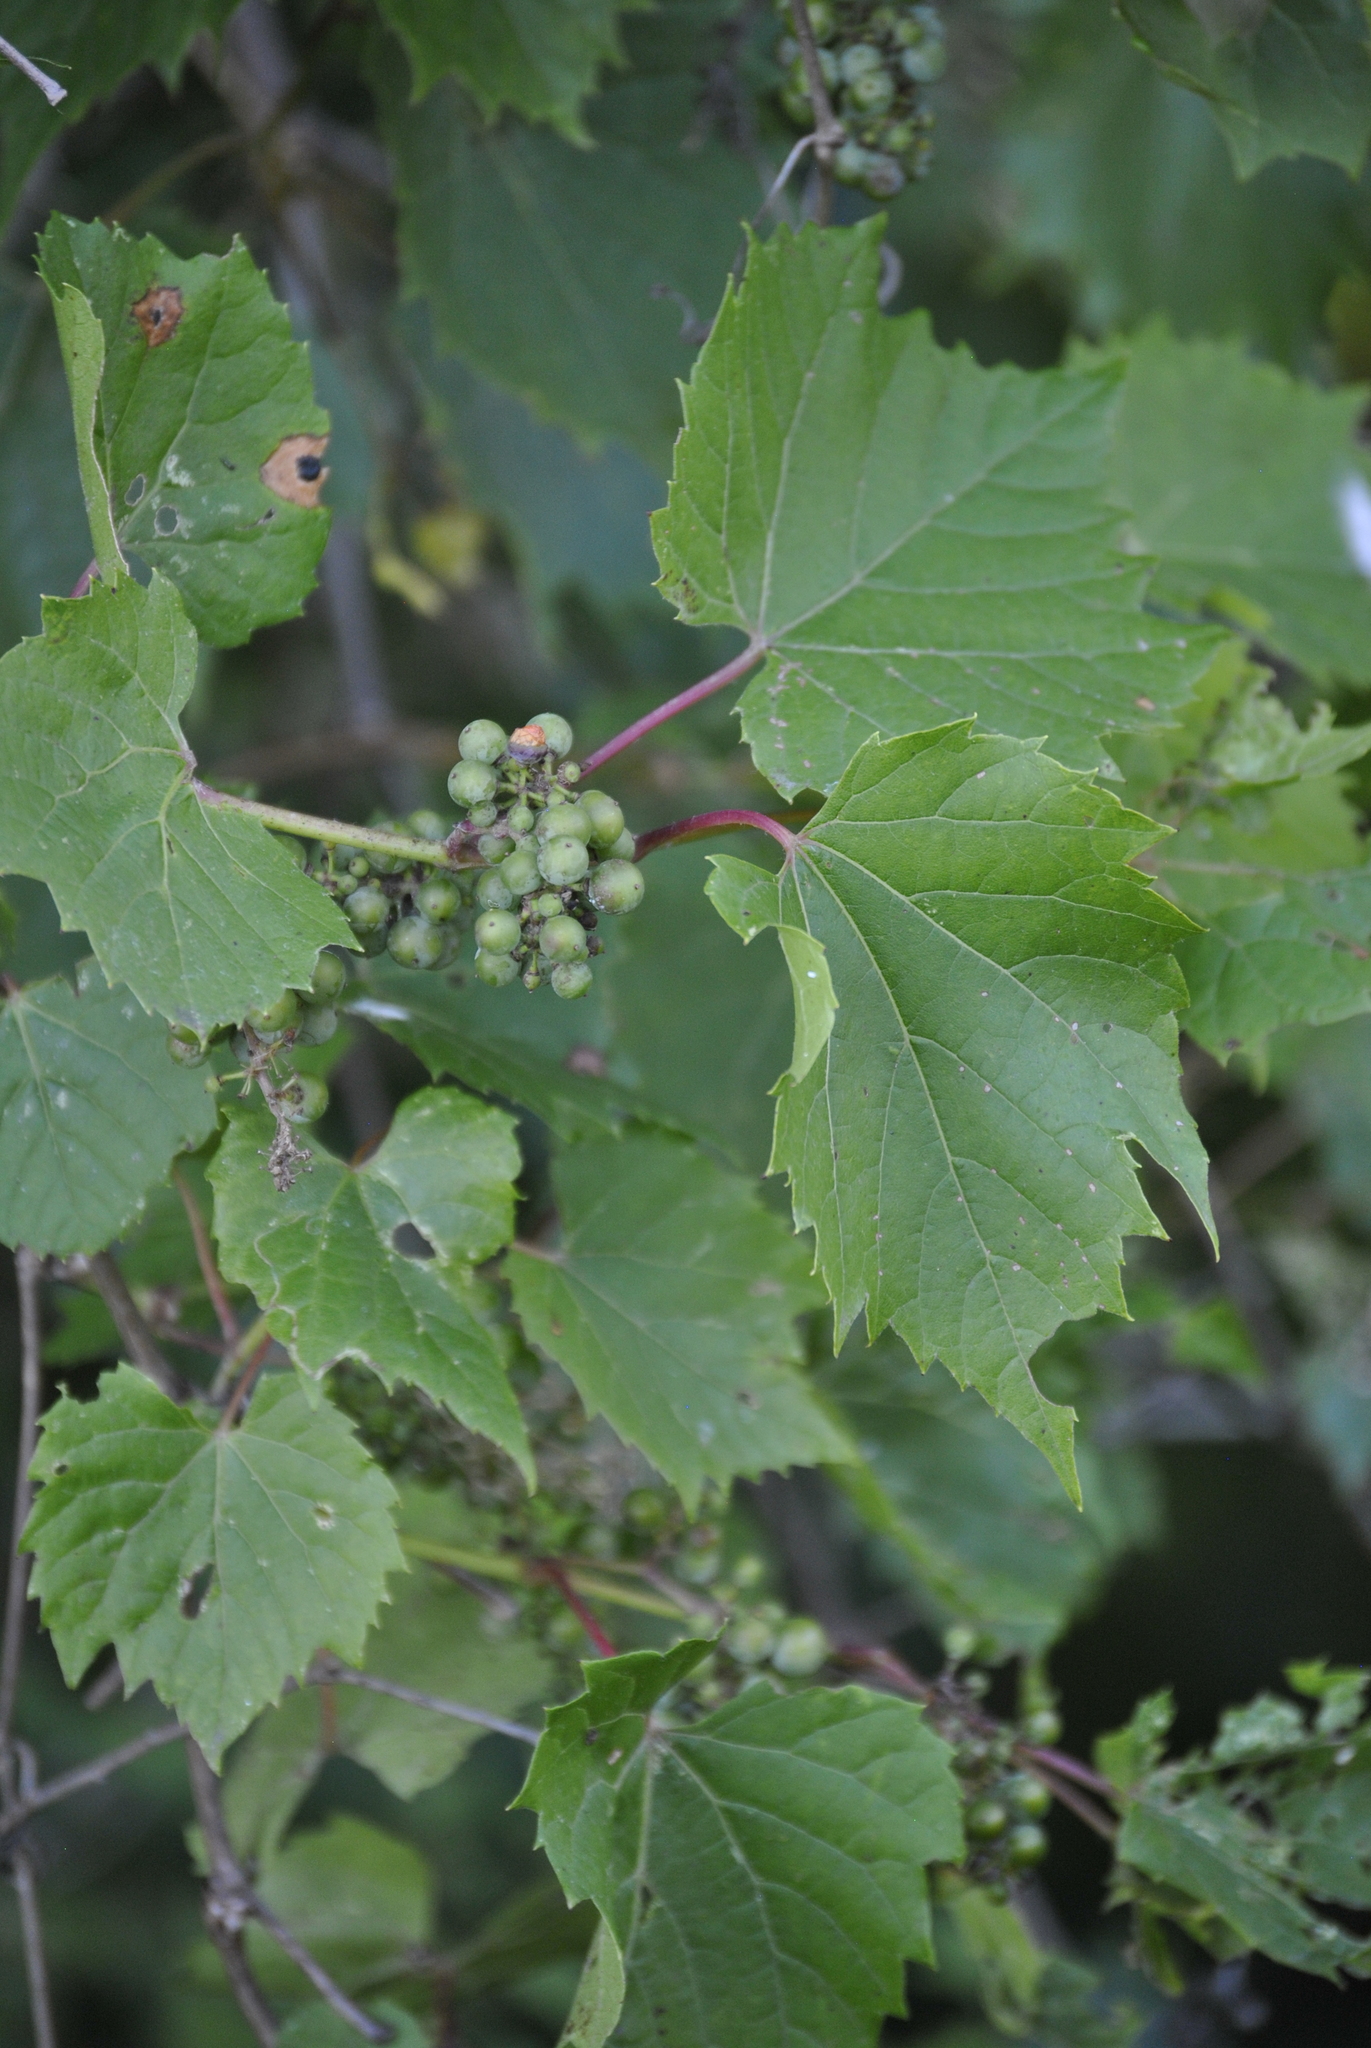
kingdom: Plantae
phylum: Tracheophyta
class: Magnoliopsida
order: Vitales
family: Vitaceae
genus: Vitis
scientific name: Vitis riparia
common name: Frost grape
